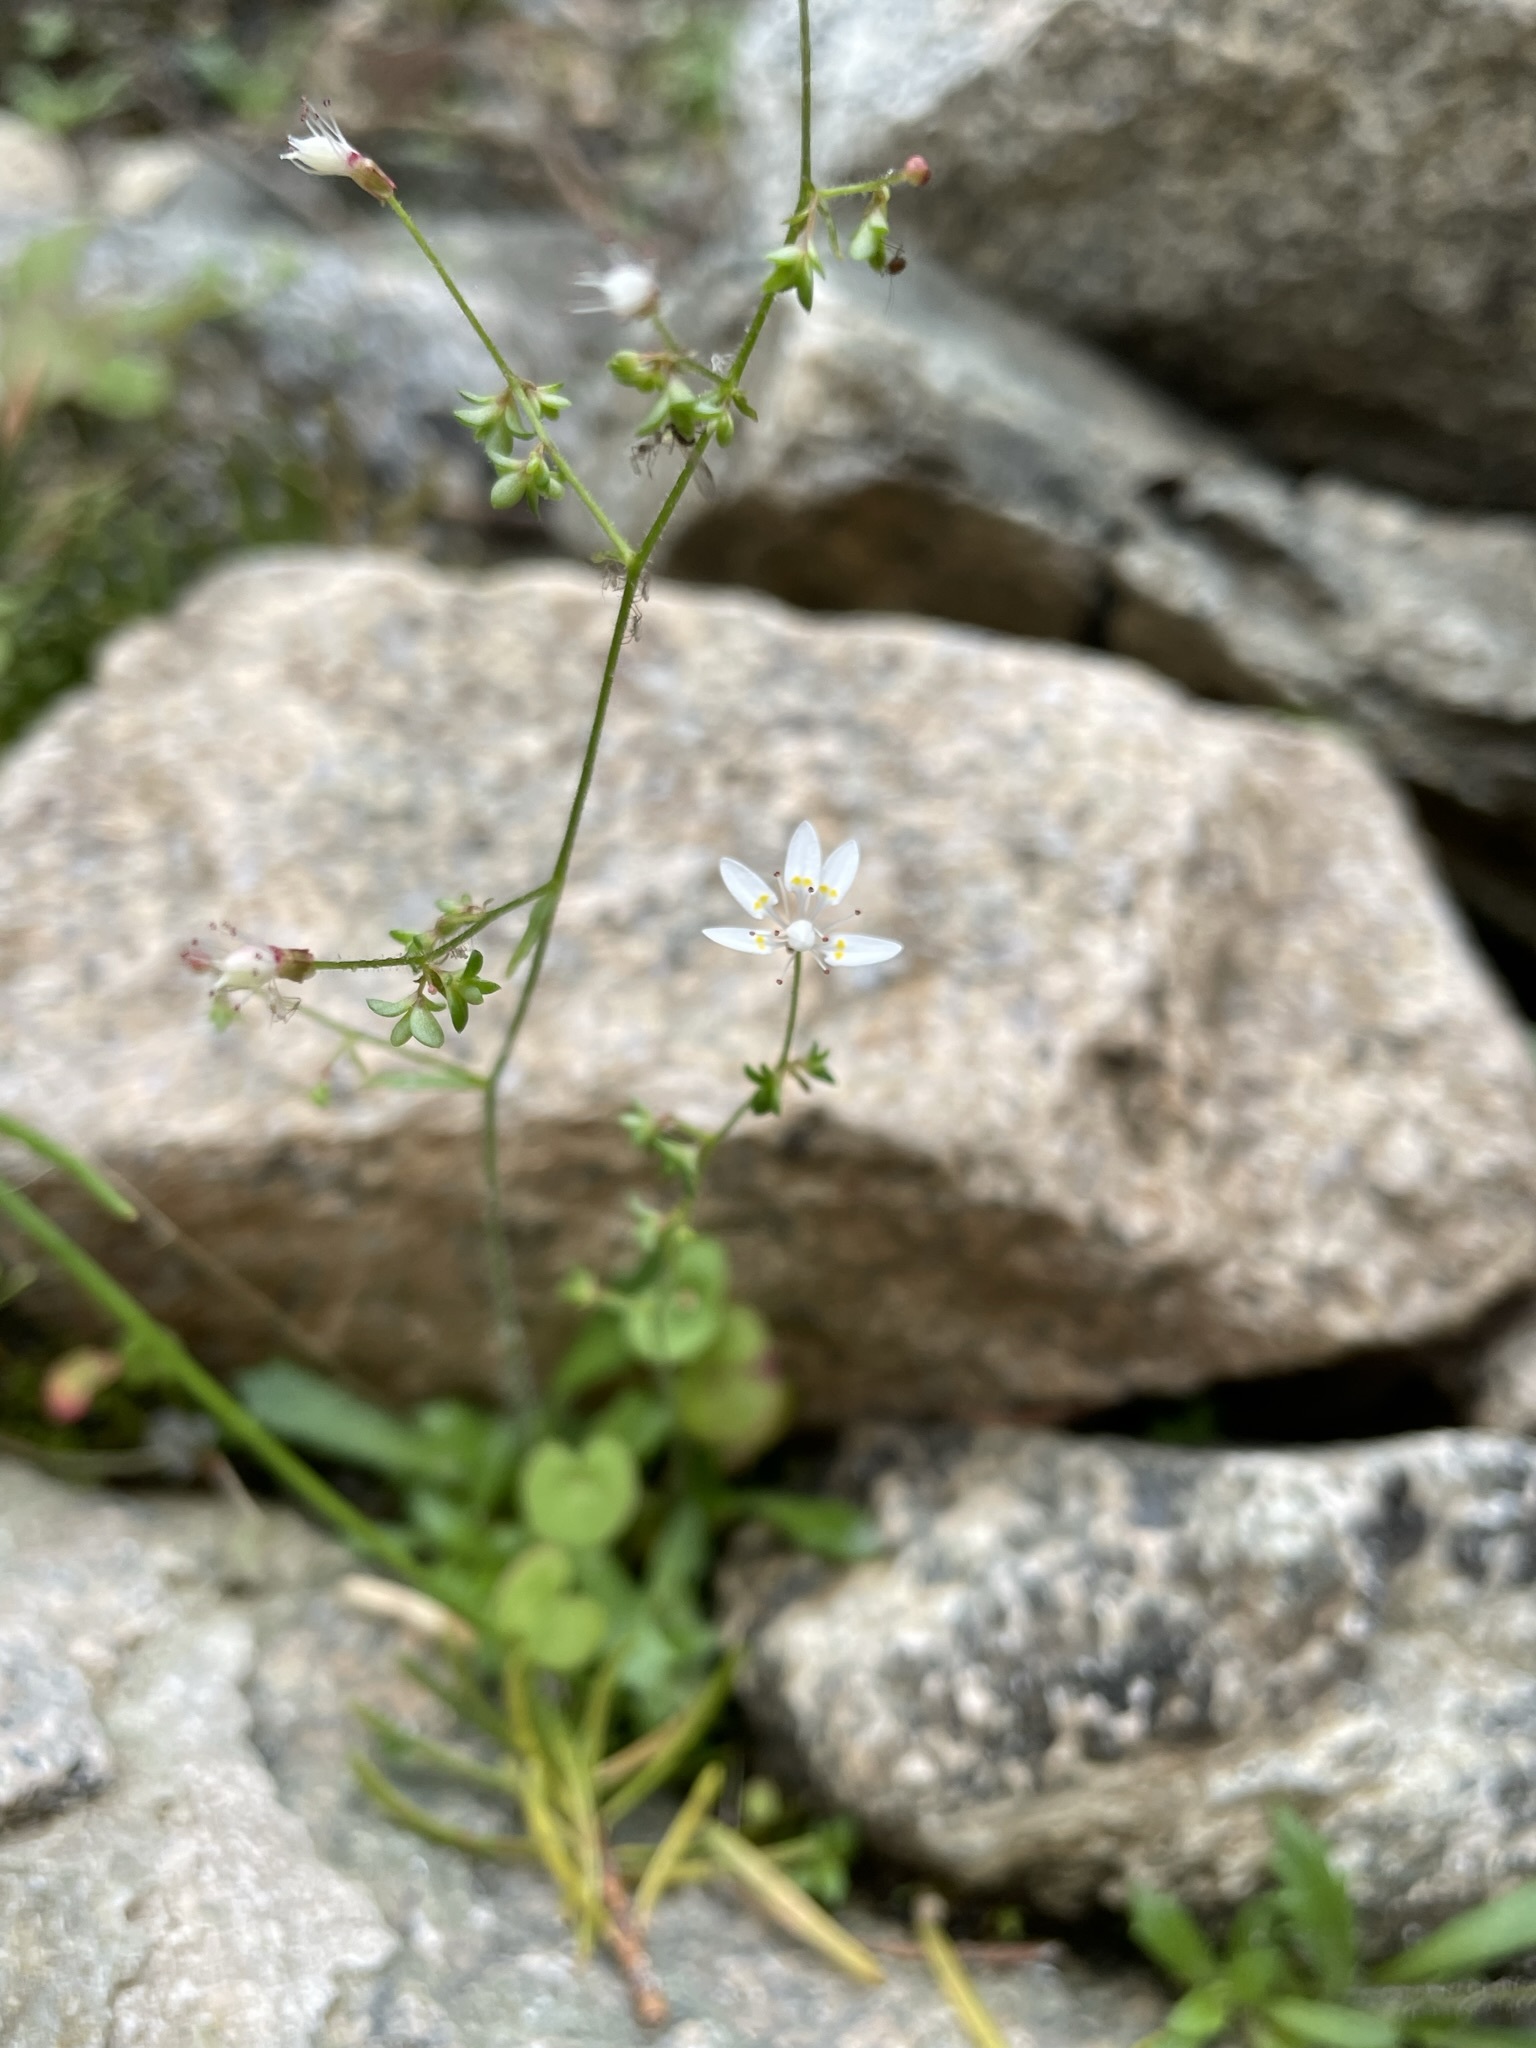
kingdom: Plantae
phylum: Tracheophyta
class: Magnoliopsida
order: Saxifragales
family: Saxifragaceae
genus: Micranthes
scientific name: Micranthes ferruginea
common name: Rusty saxifrage
